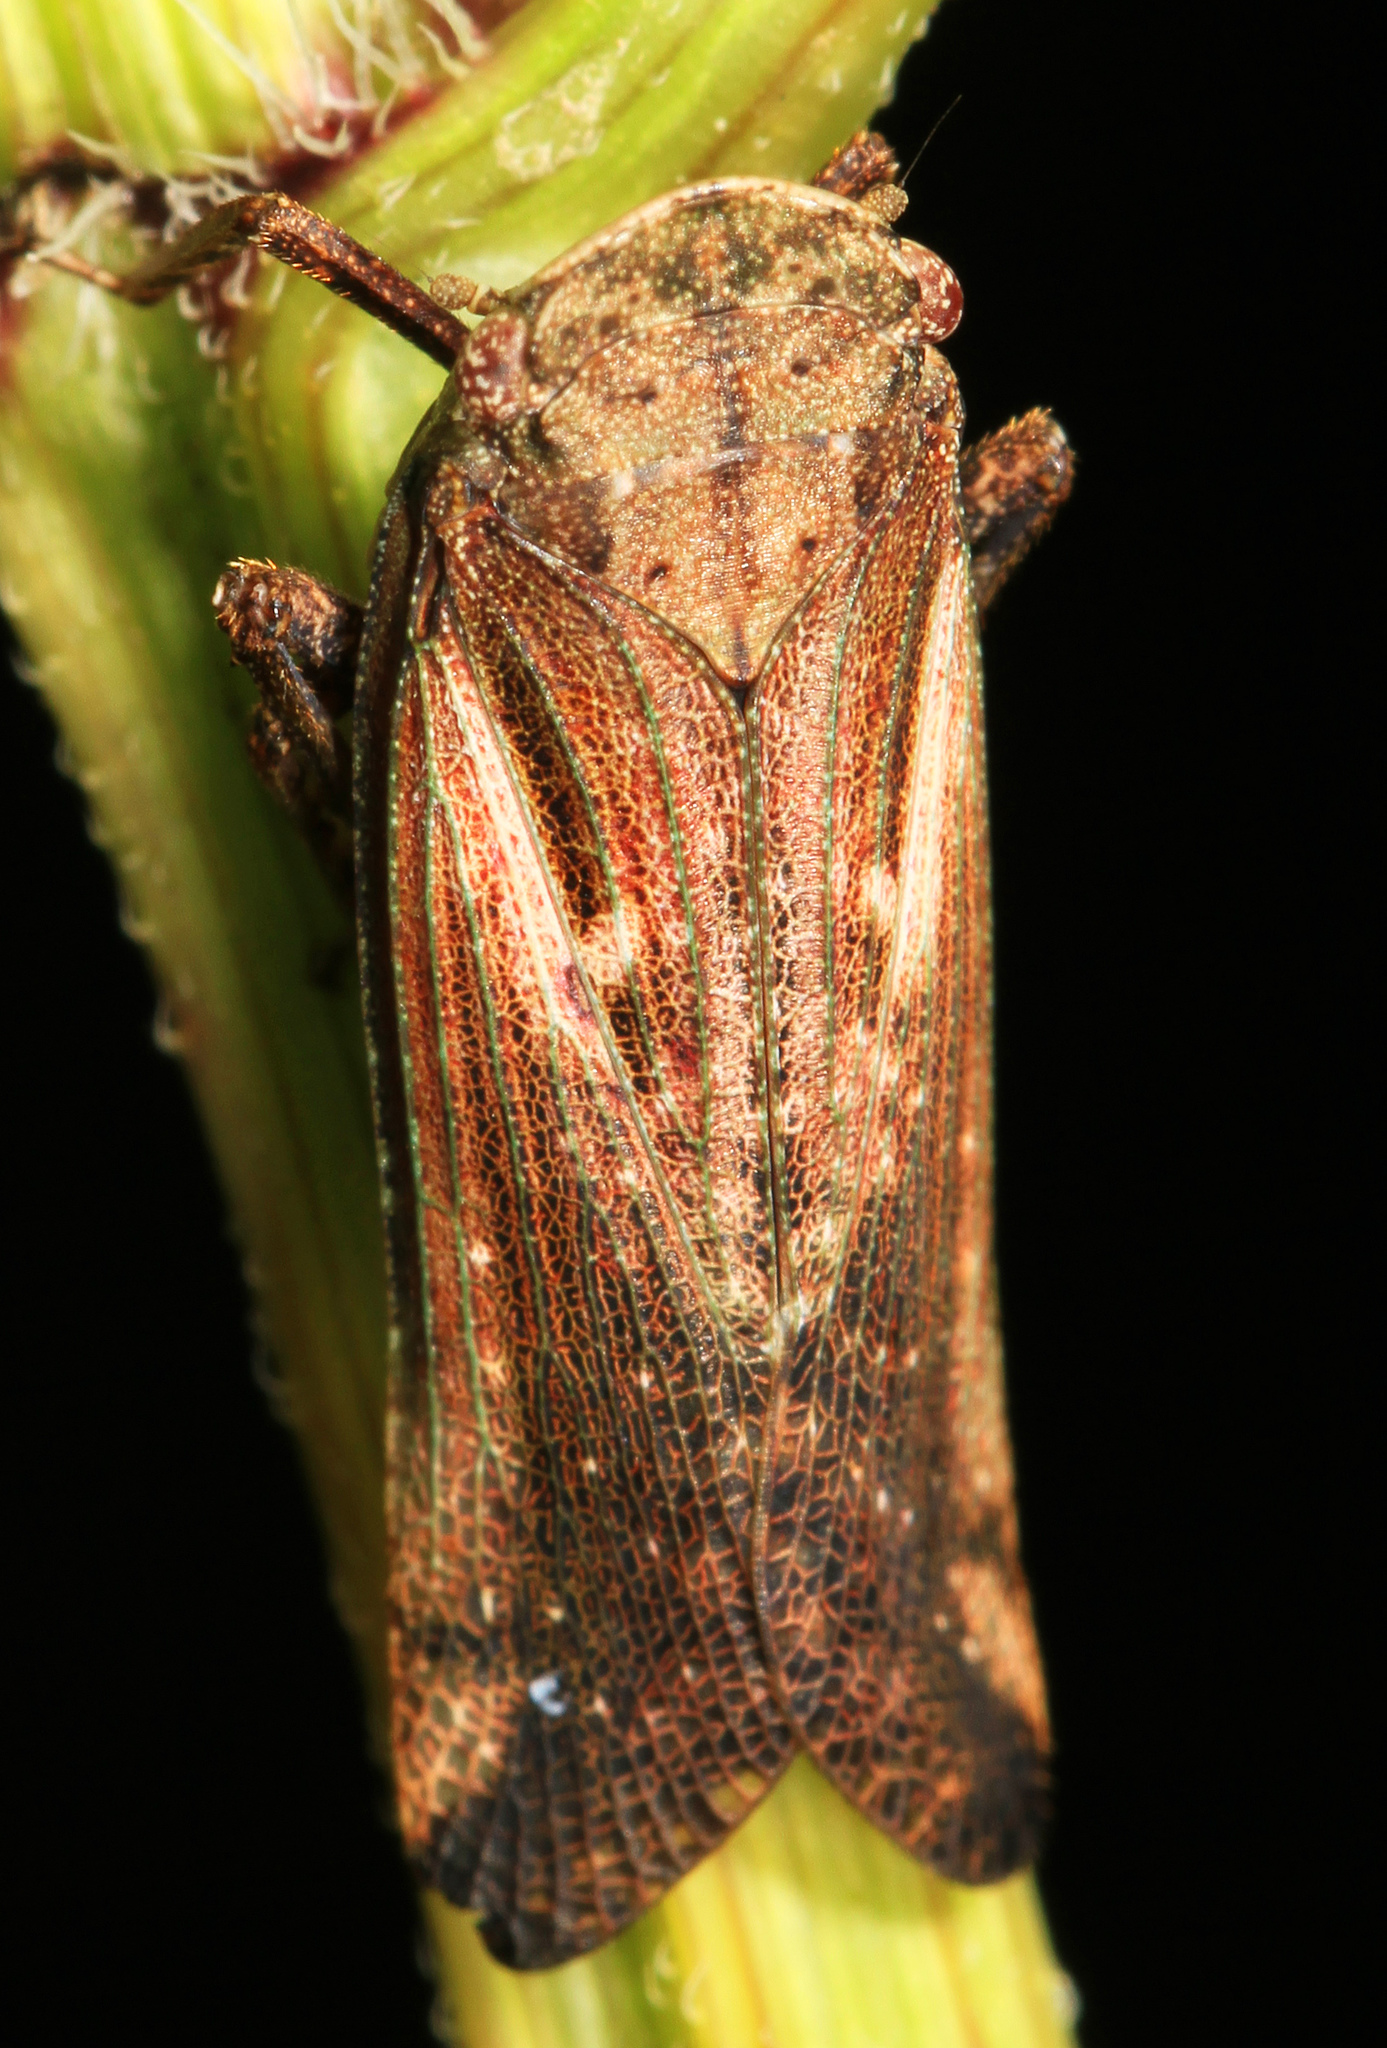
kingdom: Animalia
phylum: Arthropoda
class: Insecta
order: Hemiptera
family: Fulgoridae
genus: Cyrpoptus
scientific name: Cyrpoptus belfragei
